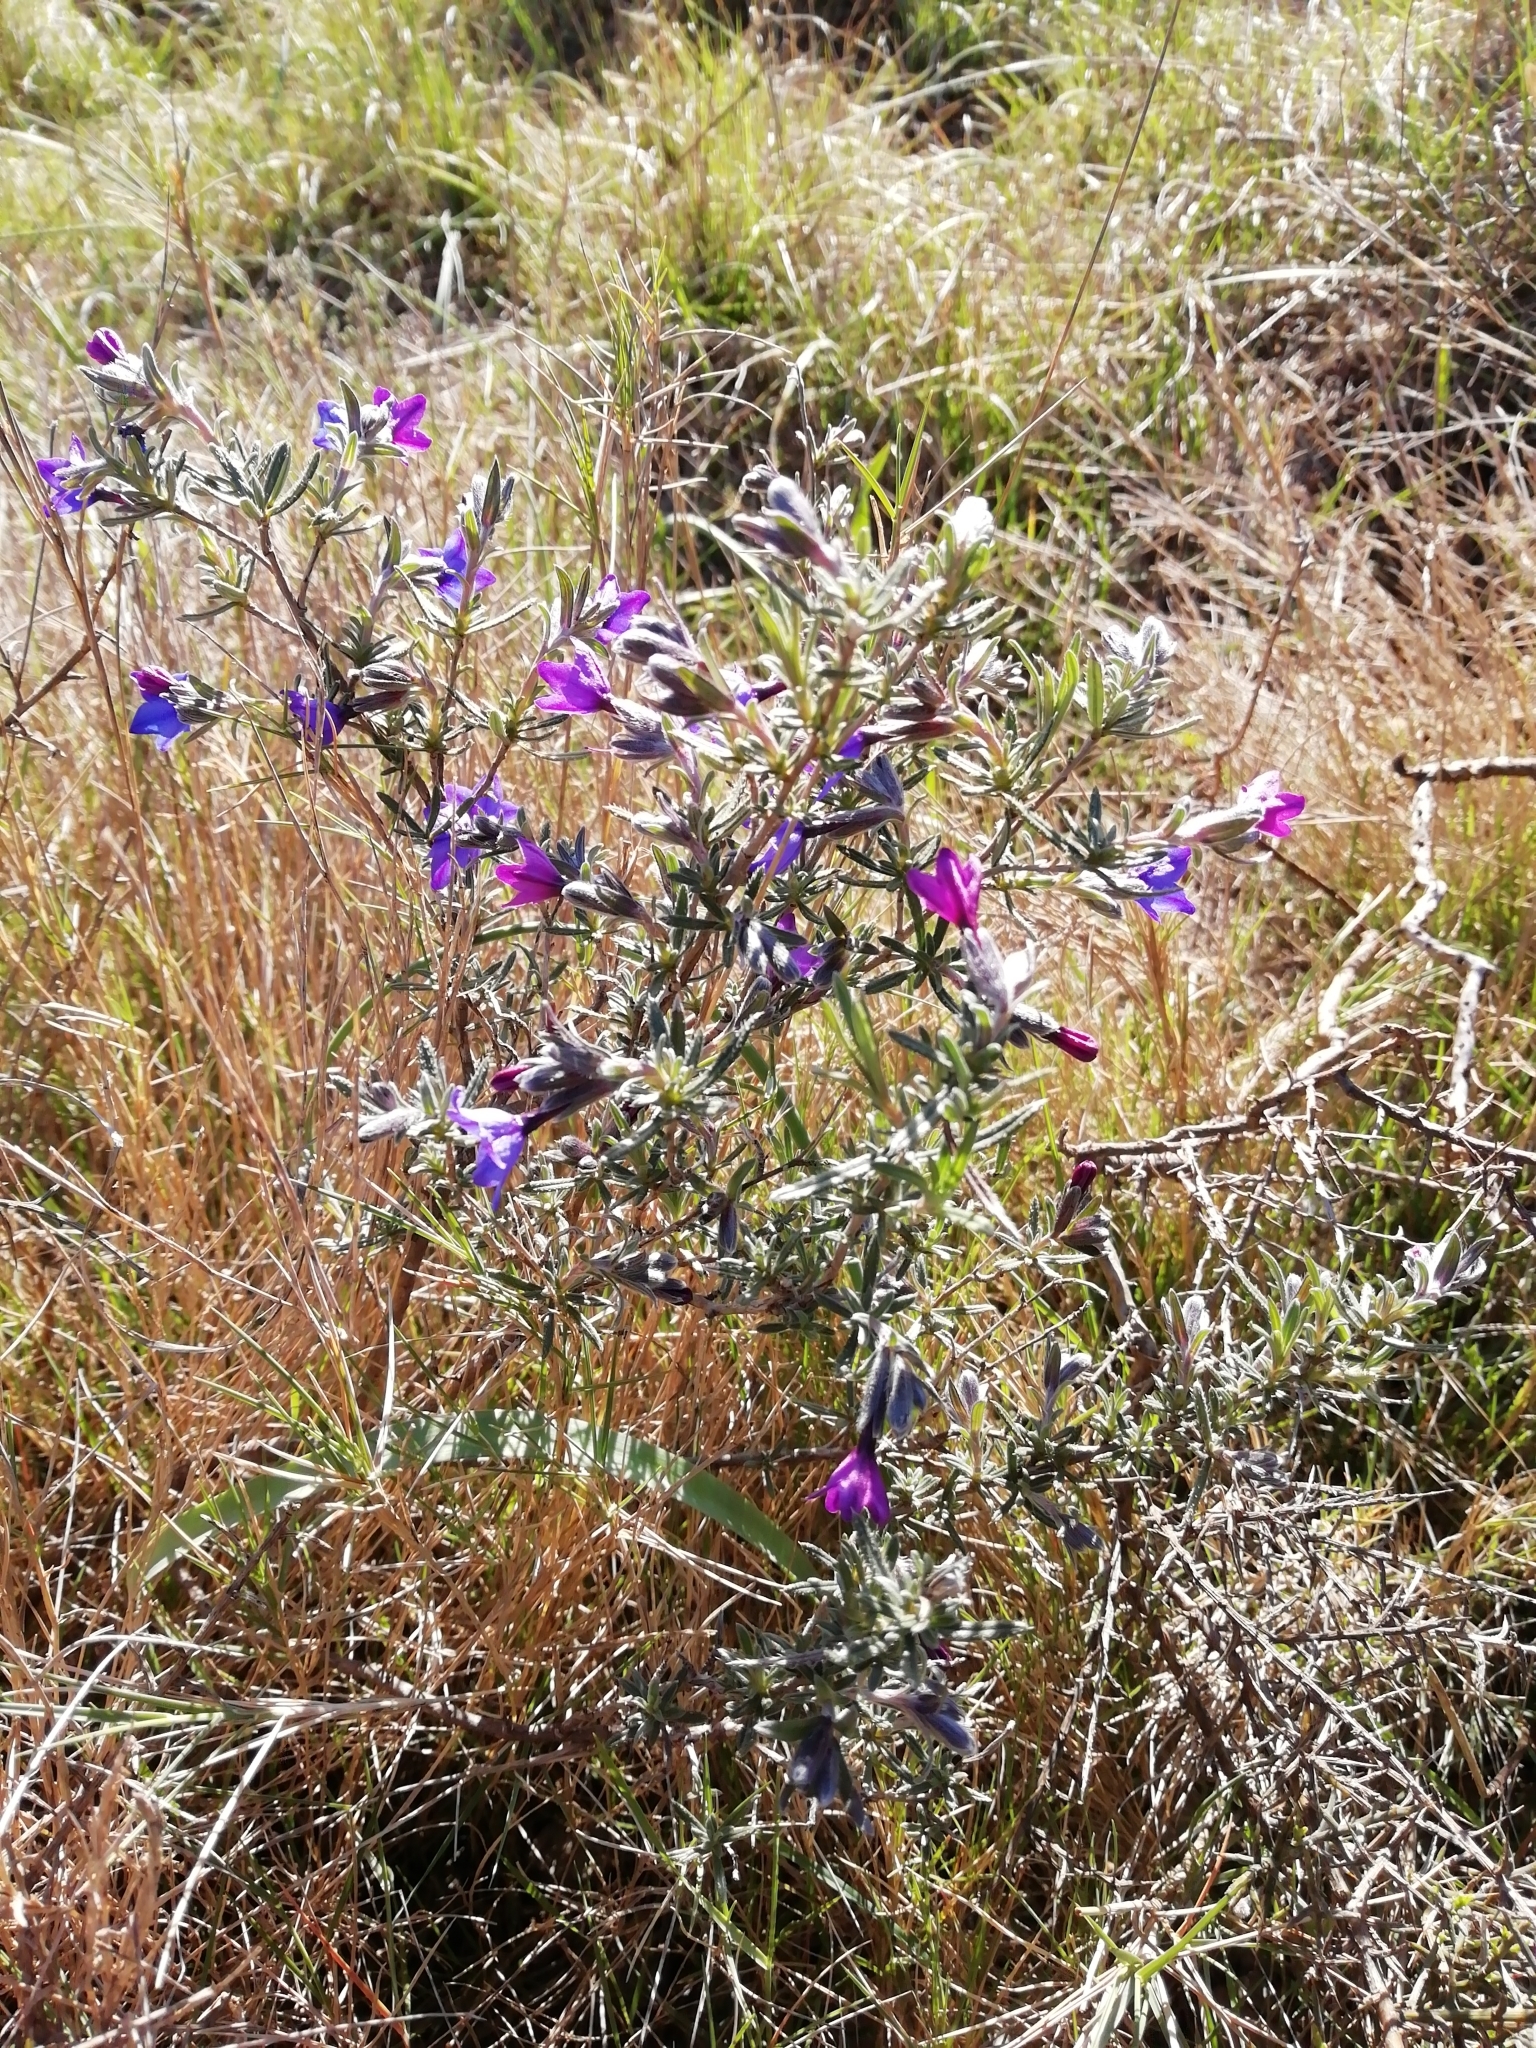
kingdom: Plantae
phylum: Tracheophyta
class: Magnoliopsida
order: Boraginales
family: Boraginaceae
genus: Lithodora
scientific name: Lithodora fruticosa
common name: Shrubby gromwell
